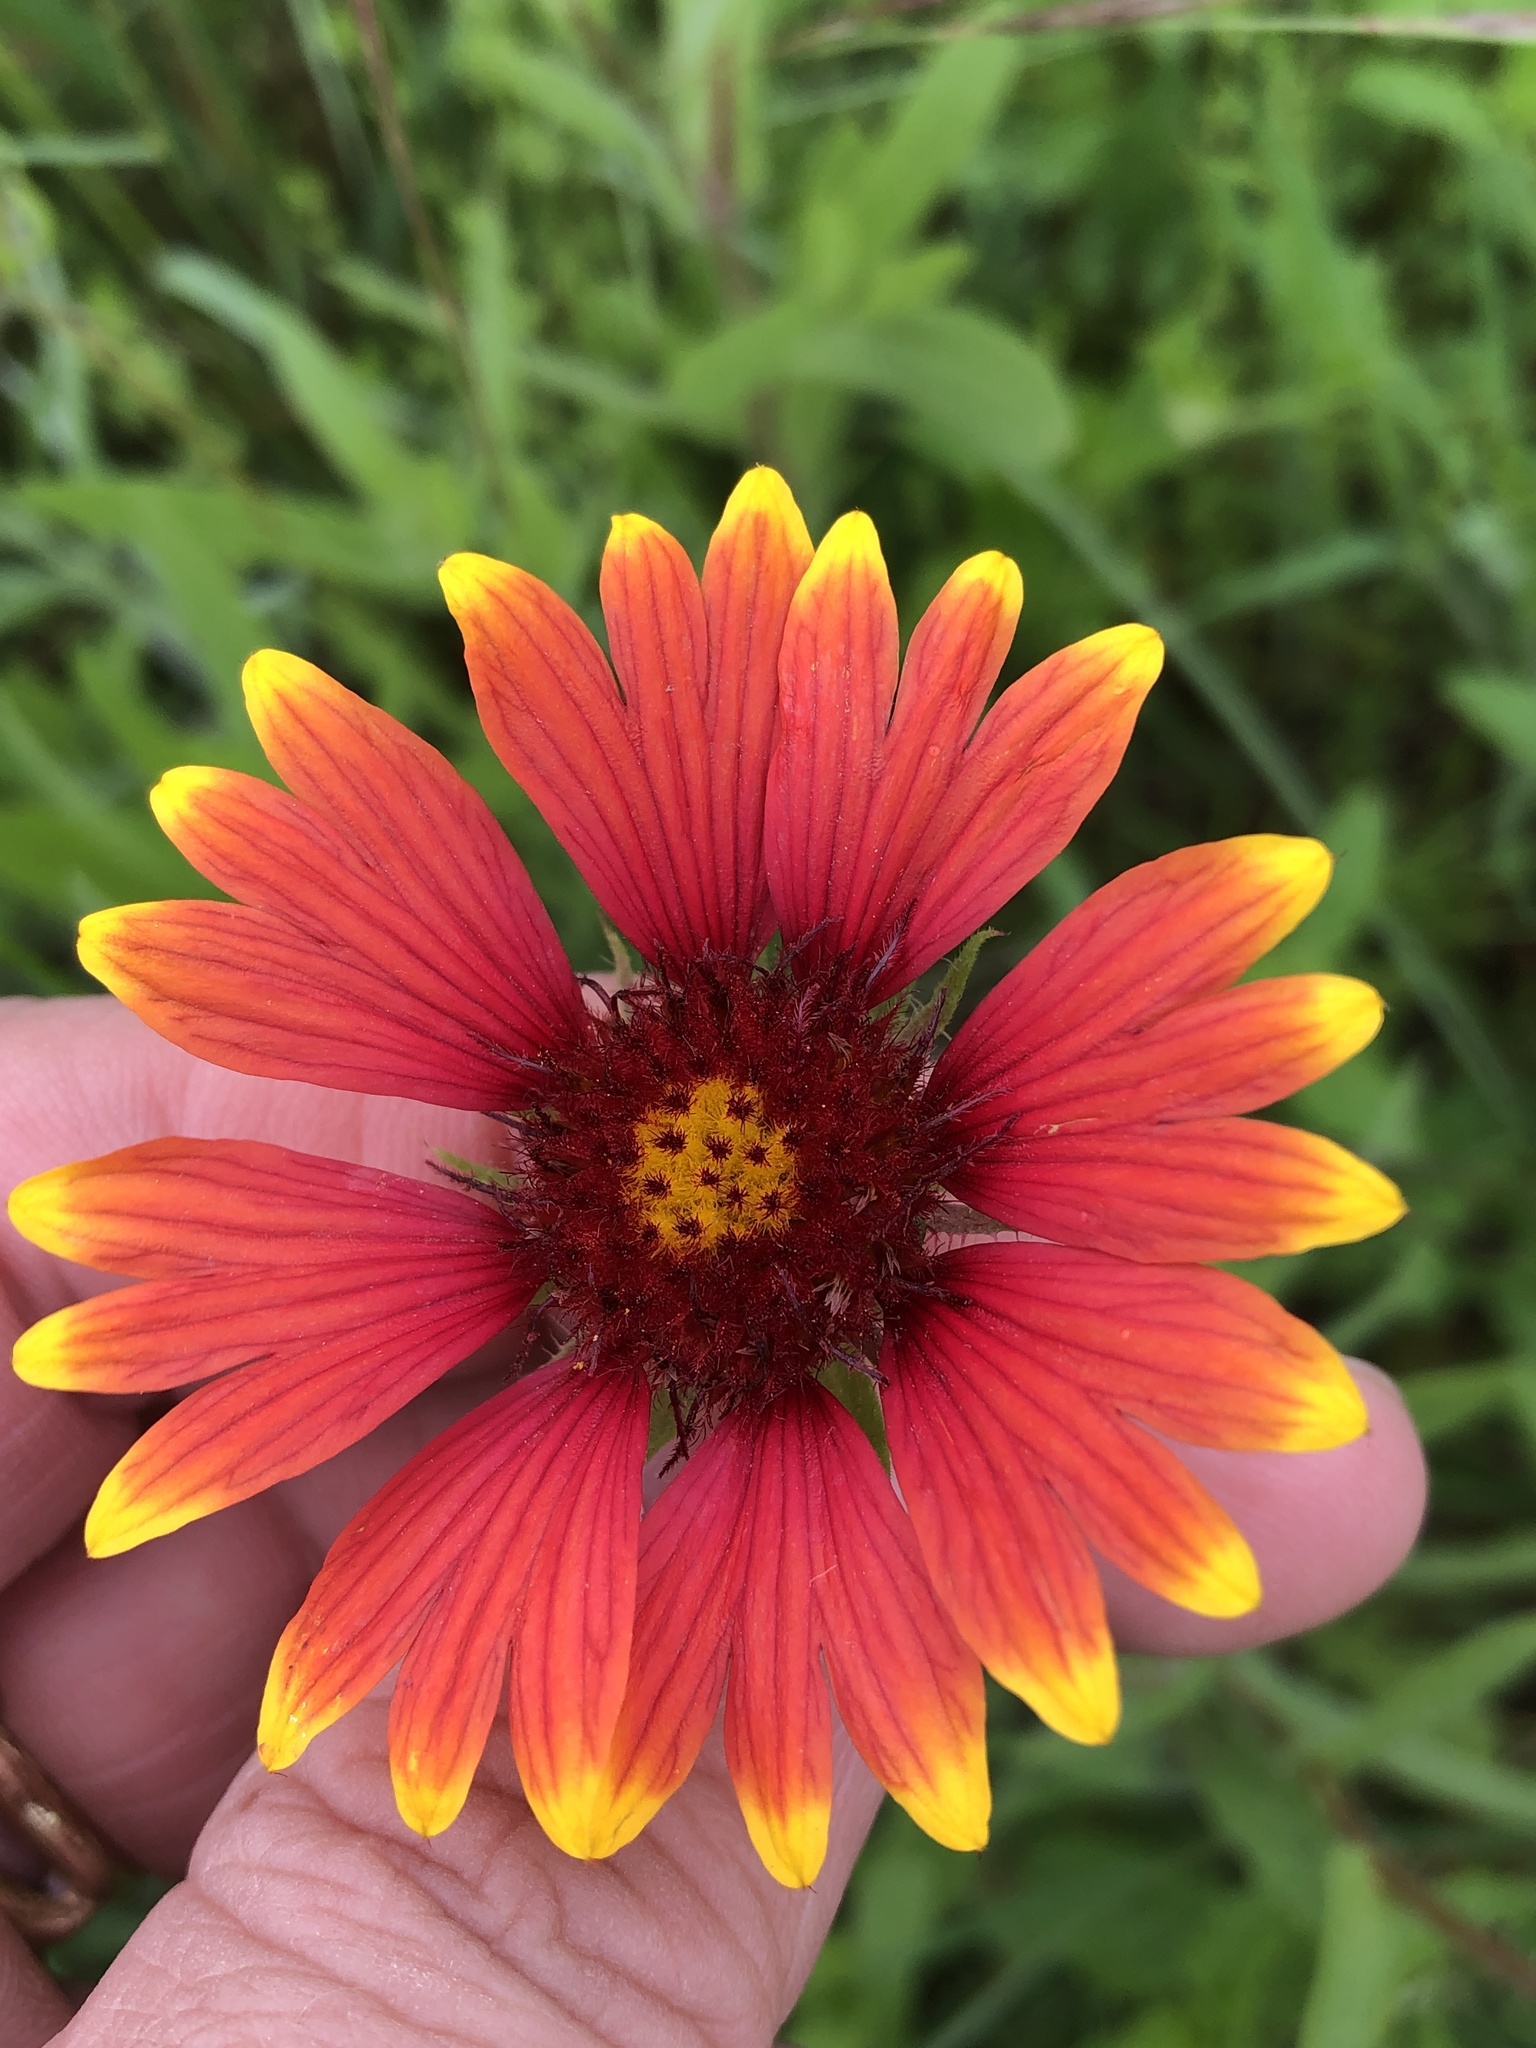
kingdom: Plantae
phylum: Tracheophyta
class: Magnoliopsida
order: Asterales
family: Asteraceae
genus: Gaillardia
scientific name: Gaillardia pulchella
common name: Firewheel
